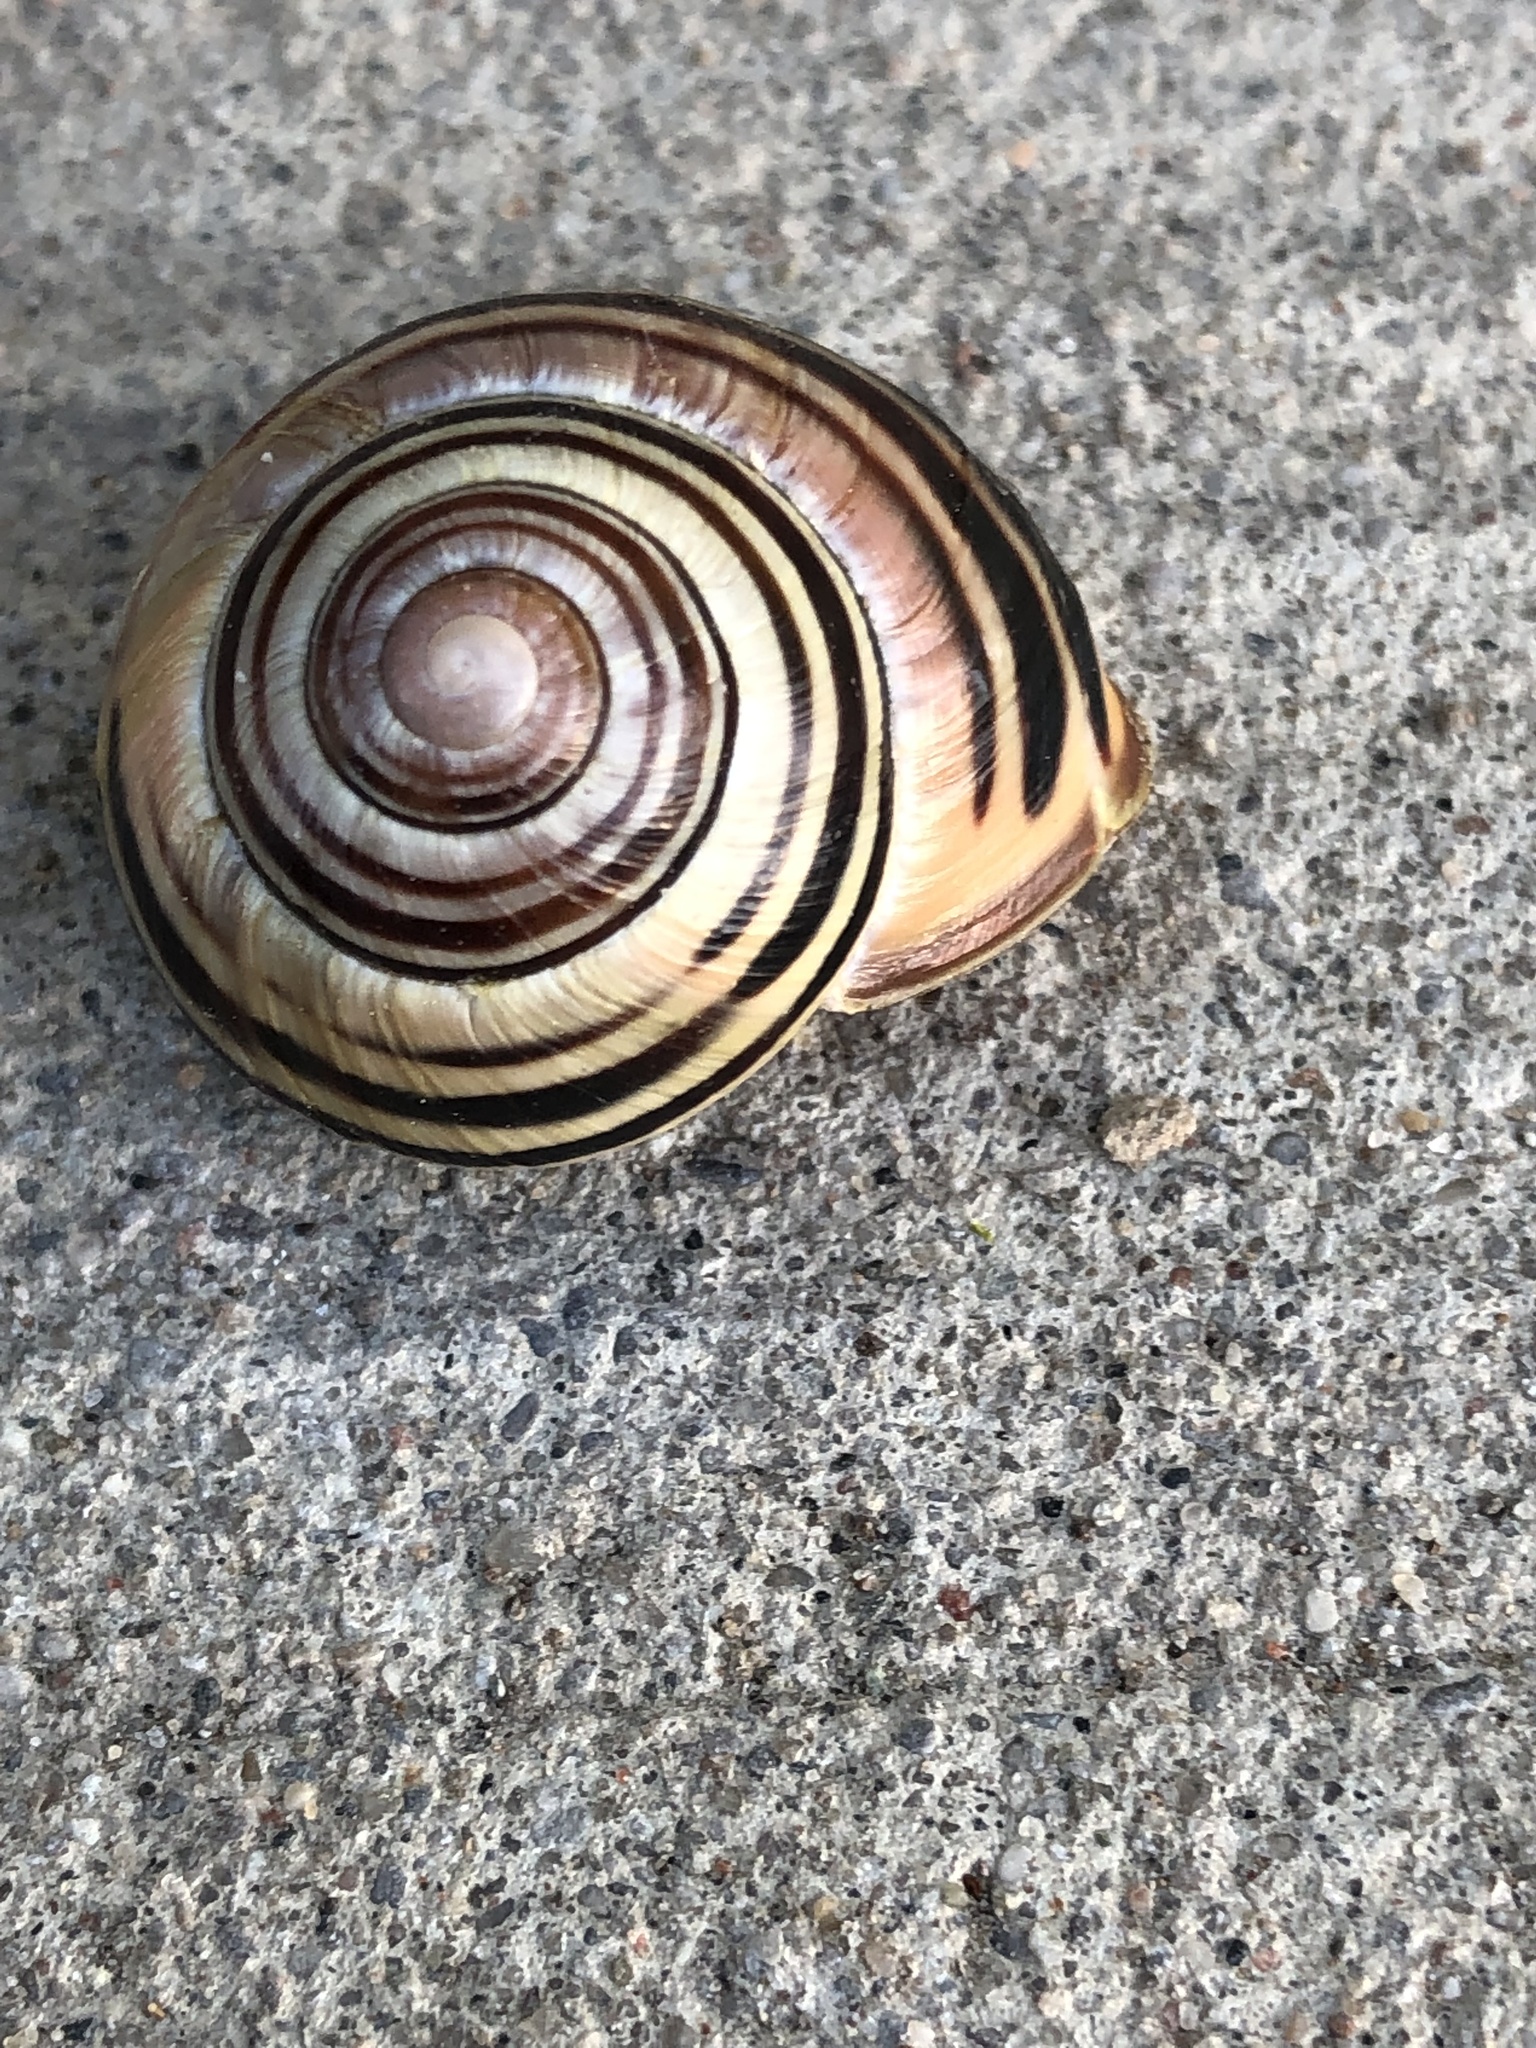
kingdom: Animalia
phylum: Mollusca
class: Gastropoda
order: Stylommatophora
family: Helicidae
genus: Cepaea
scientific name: Cepaea nemoralis
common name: Grovesnail
